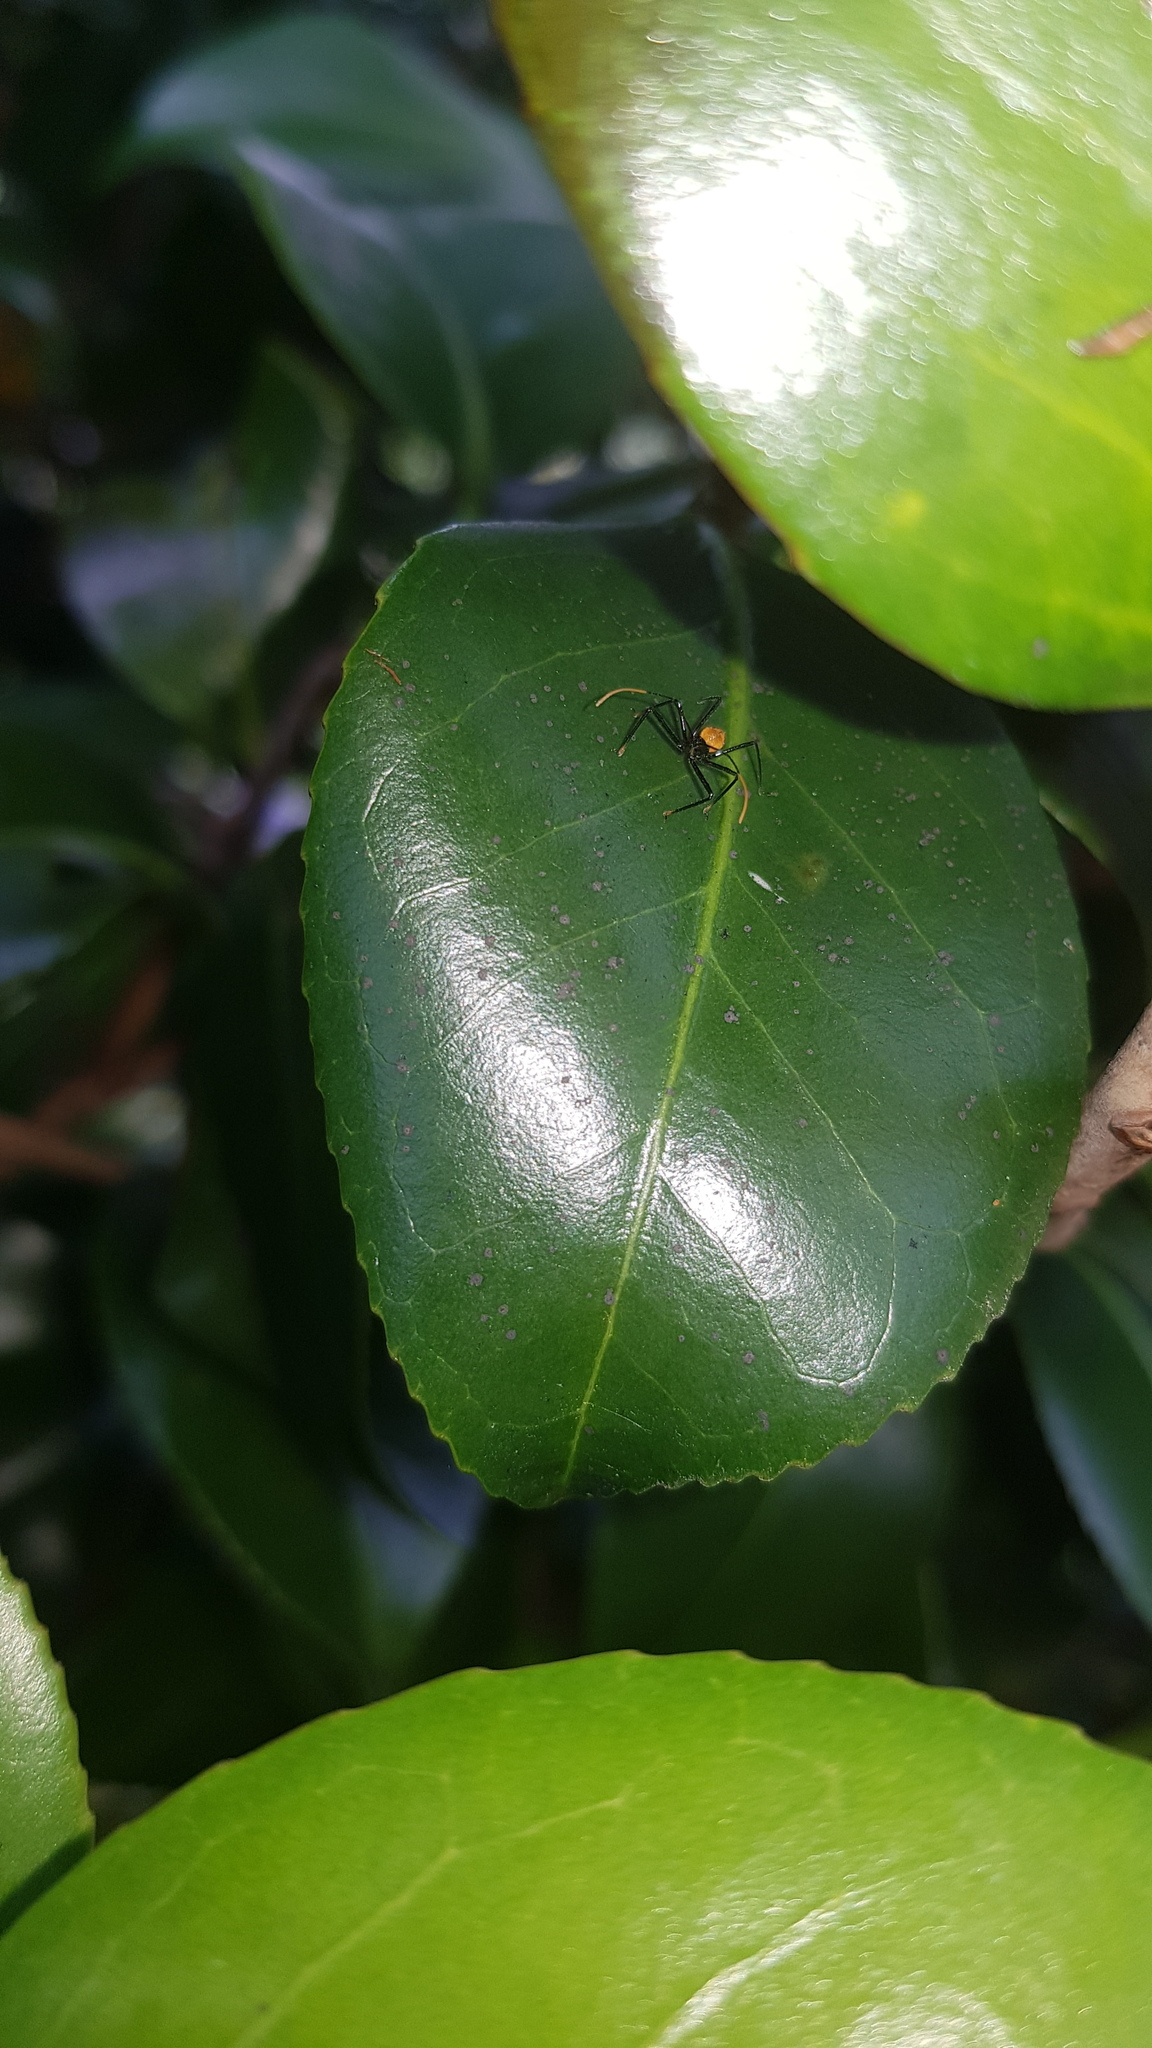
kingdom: Animalia
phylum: Arthropoda
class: Insecta
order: Hemiptera
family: Reduviidae
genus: Pristhesancus
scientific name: Pristhesancus plagipennis
